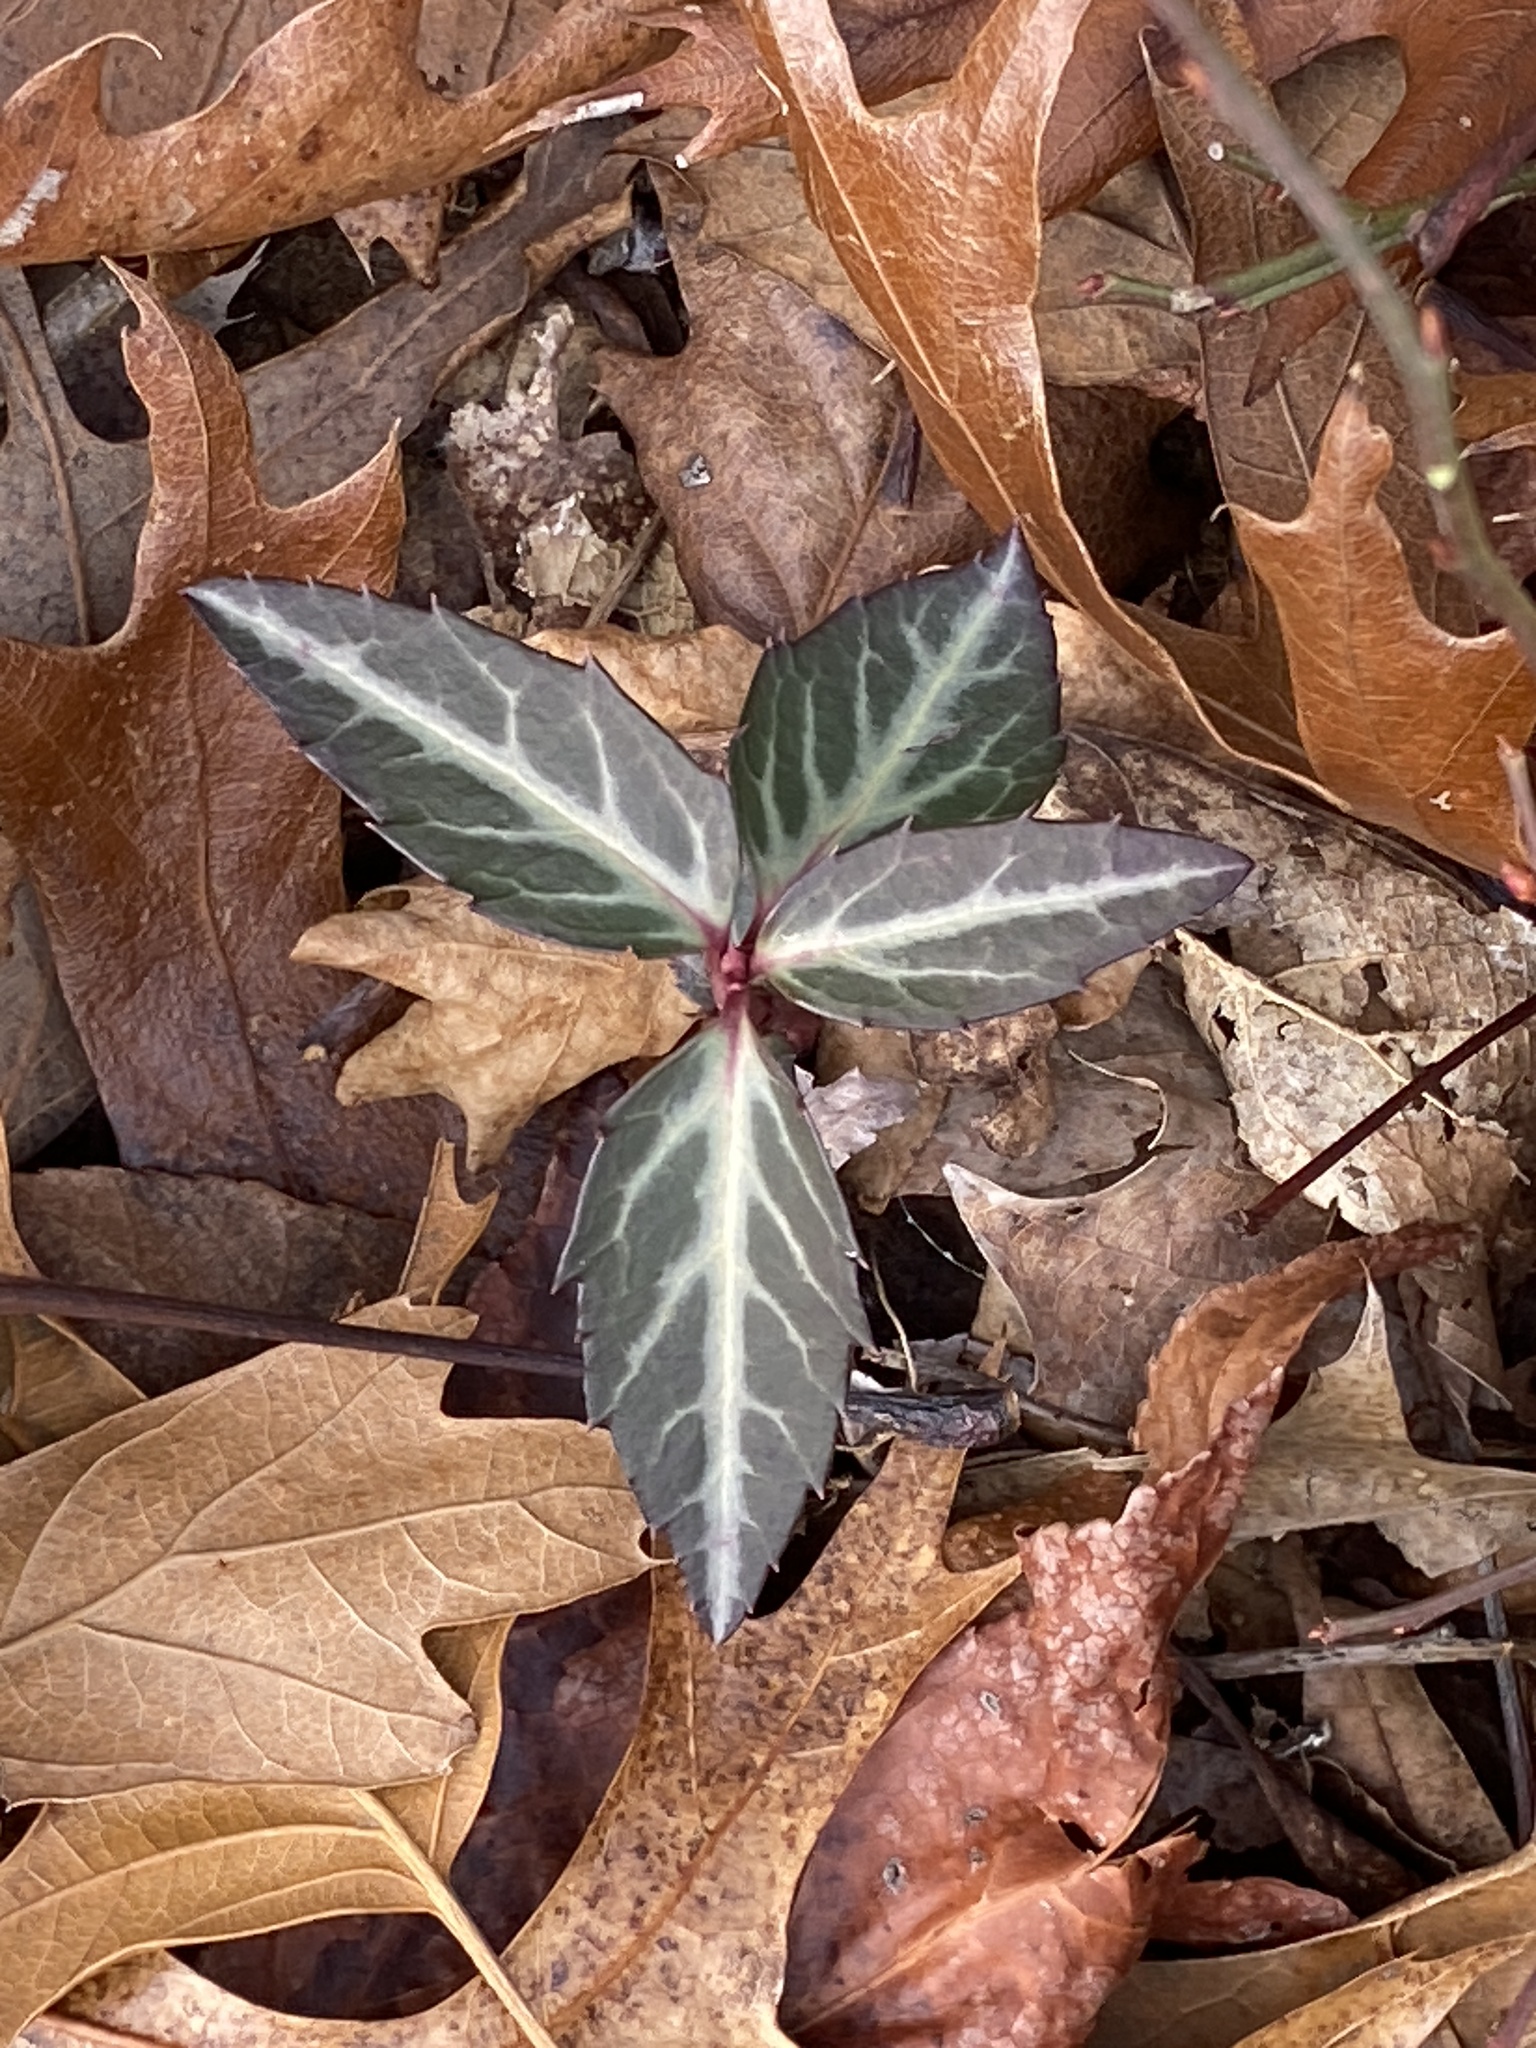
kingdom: Plantae
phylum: Tracheophyta
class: Magnoliopsida
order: Ericales
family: Ericaceae
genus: Chimaphila
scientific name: Chimaphila maculata
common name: Spotted pipsissewa
